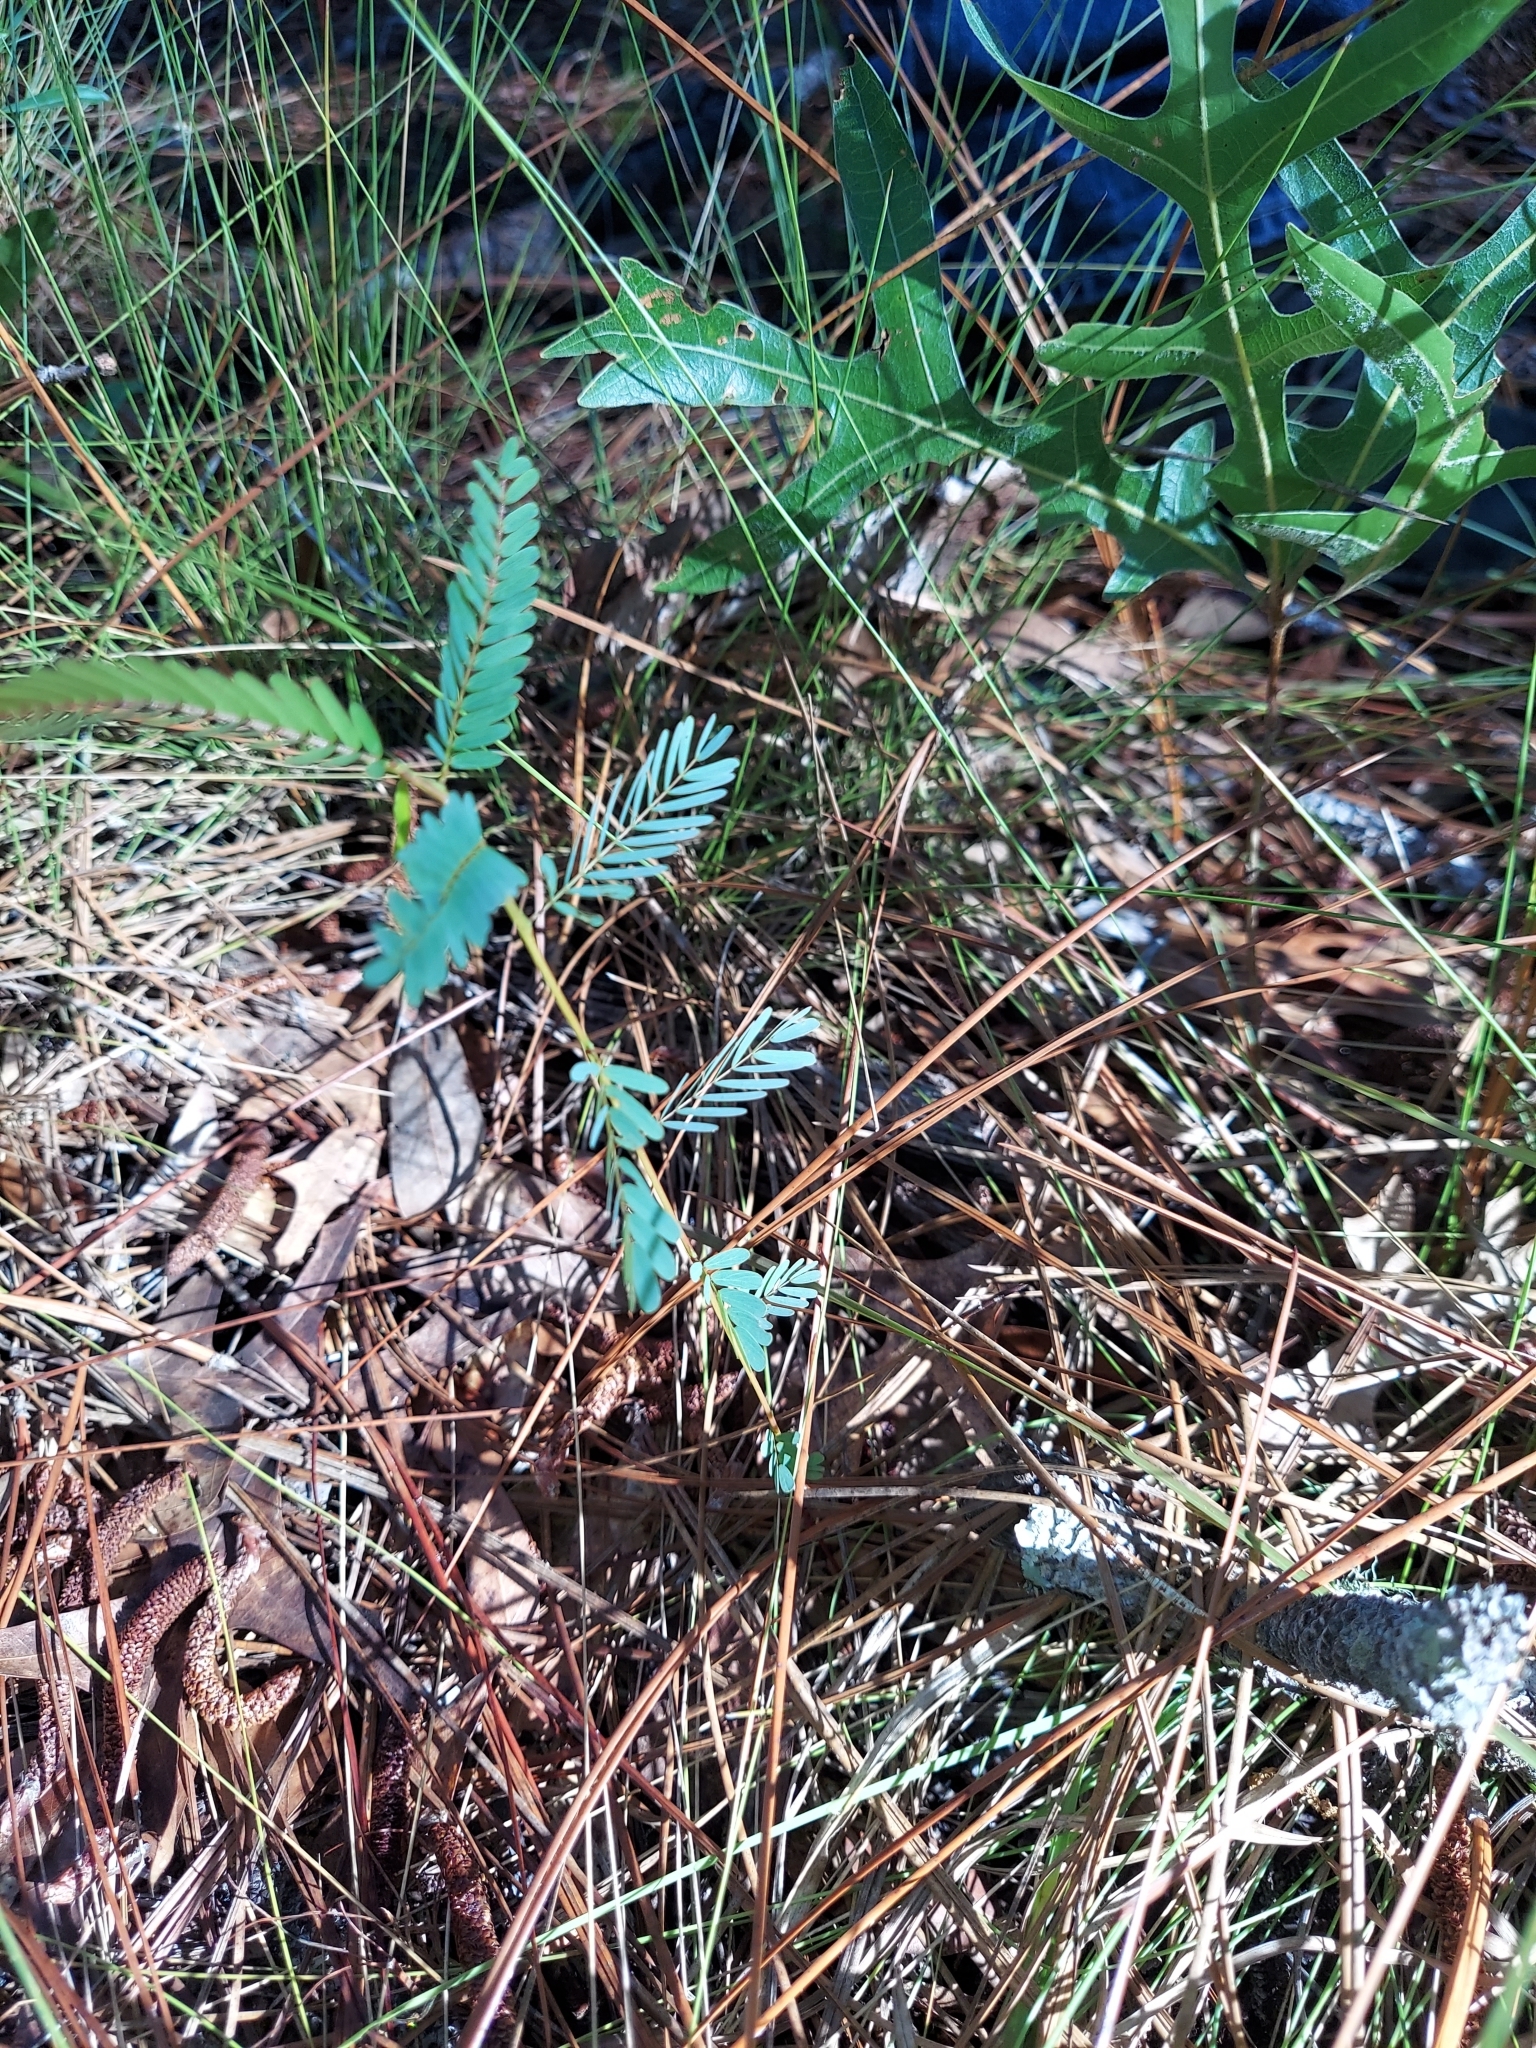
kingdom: Plantae
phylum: Tracheophyta
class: Magnoliopsida
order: Fabales
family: Fabaceae
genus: Chamaecrista
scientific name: Chamaecrista fasciculata
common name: Golden cassia
